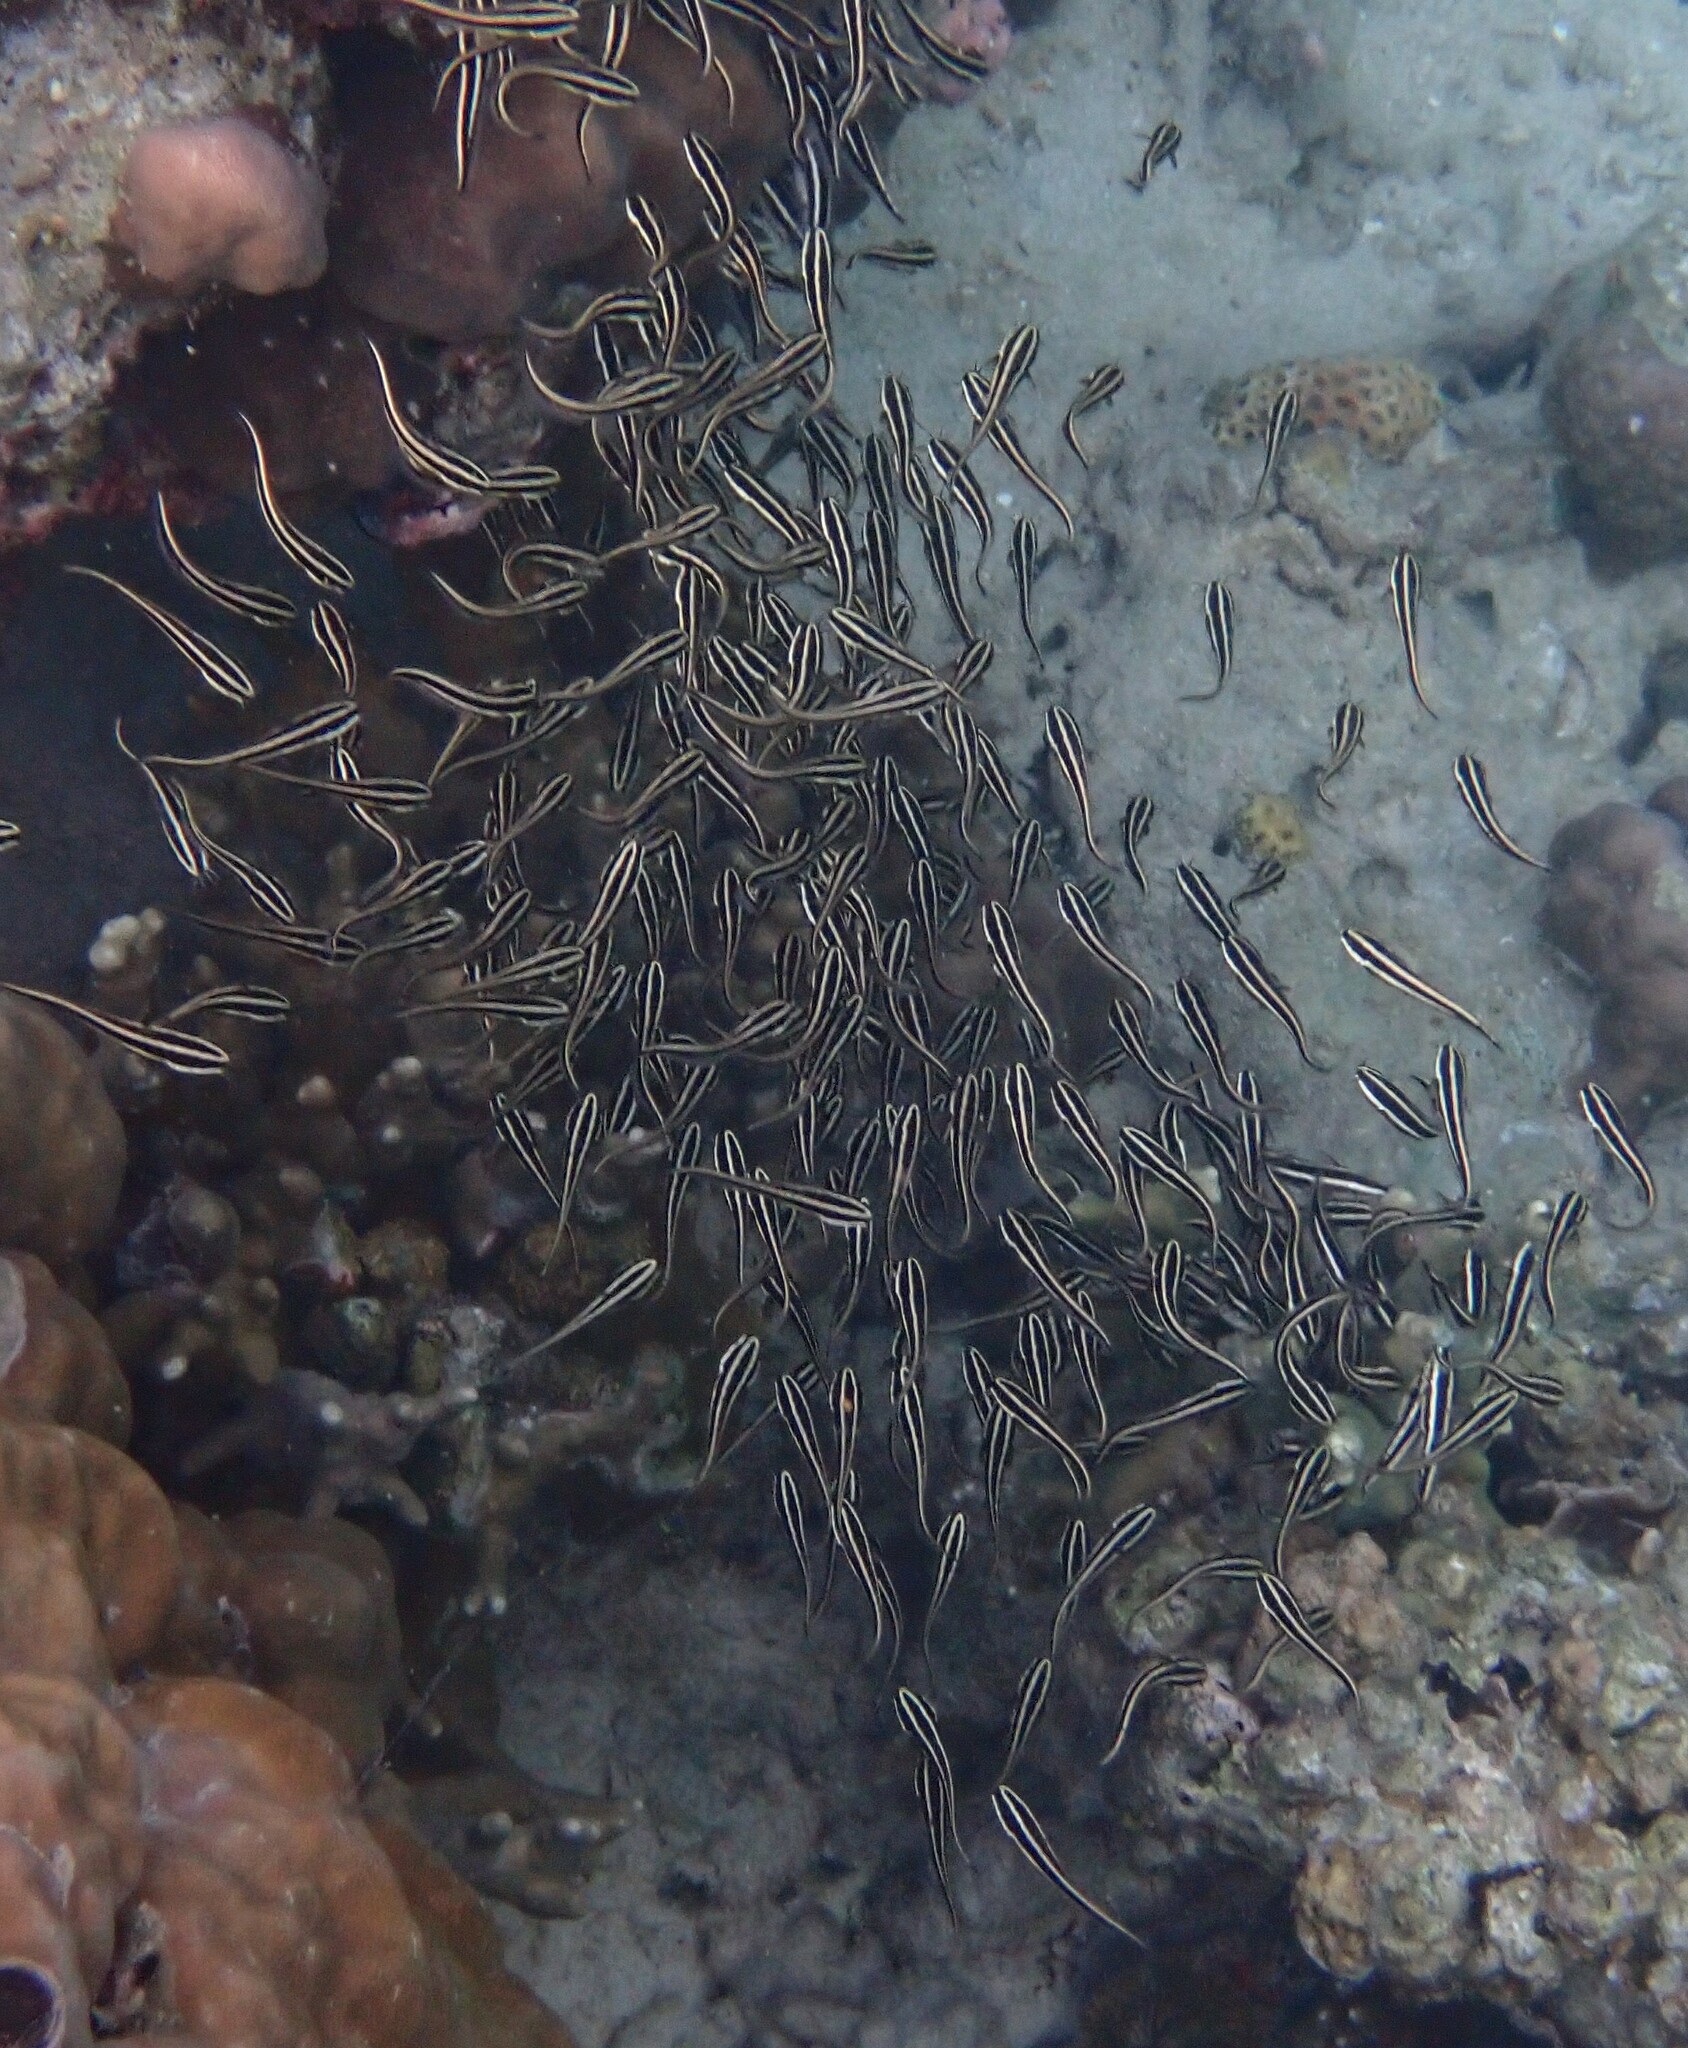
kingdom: Animalia
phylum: Chordata
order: Siluriformes
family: Plotosidae
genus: Plotosus
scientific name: Plotosus lineatus
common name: Striped eel catfish
